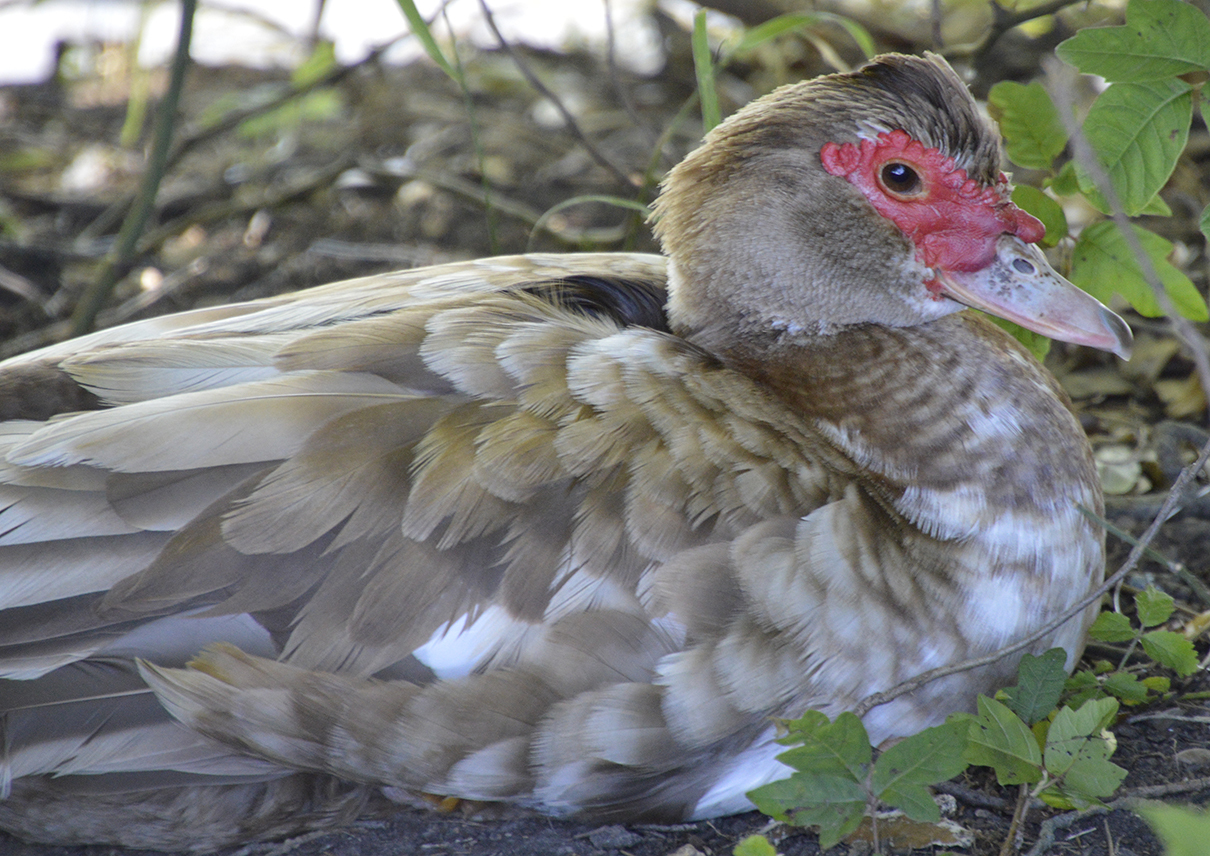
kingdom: Animalia
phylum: Chordata
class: Aves
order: Anseriformes
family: Anatidae
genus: Cairina
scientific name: Cairina moschata
